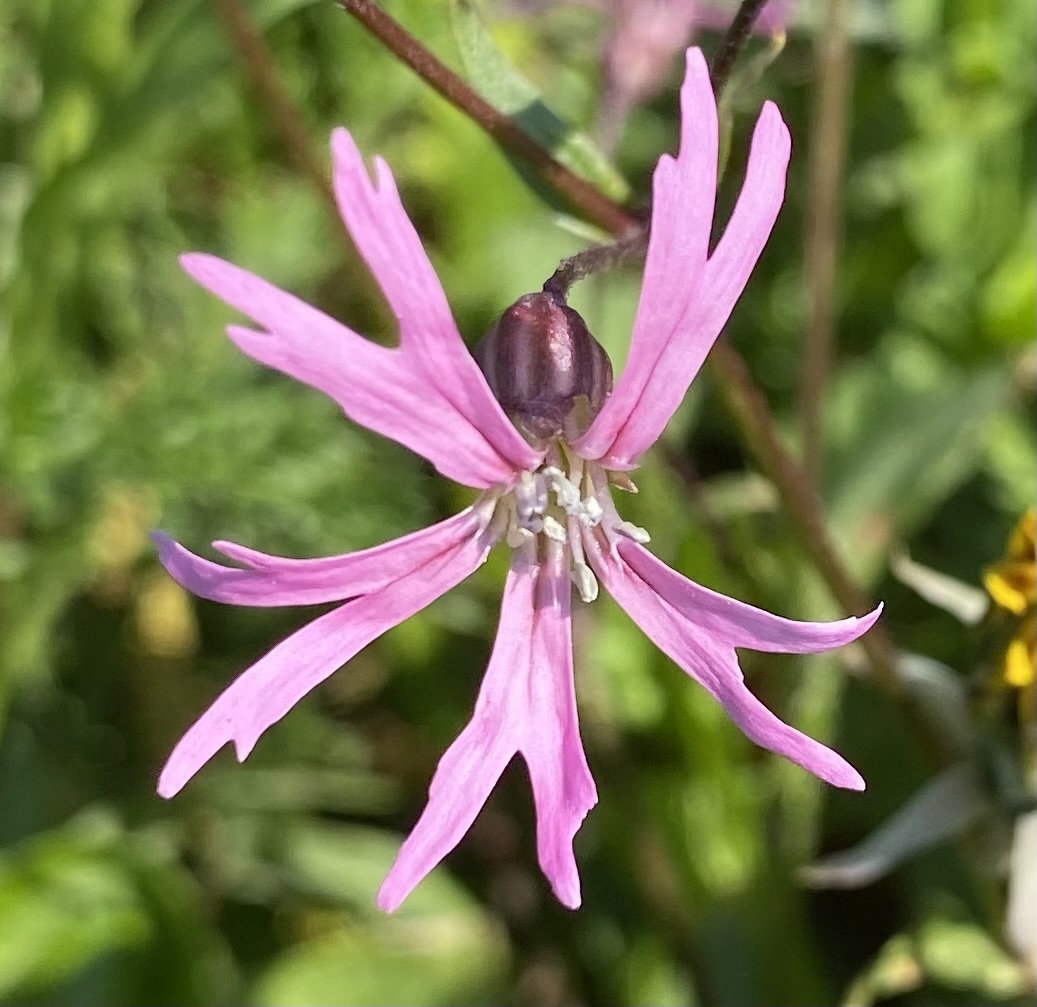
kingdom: Plantae
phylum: Tracheophyta
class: Magnoliopsida
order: Caryophyllales
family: Caryophyllaceae
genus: Silene
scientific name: Silene flos-cuculi
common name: Ragged-robin
